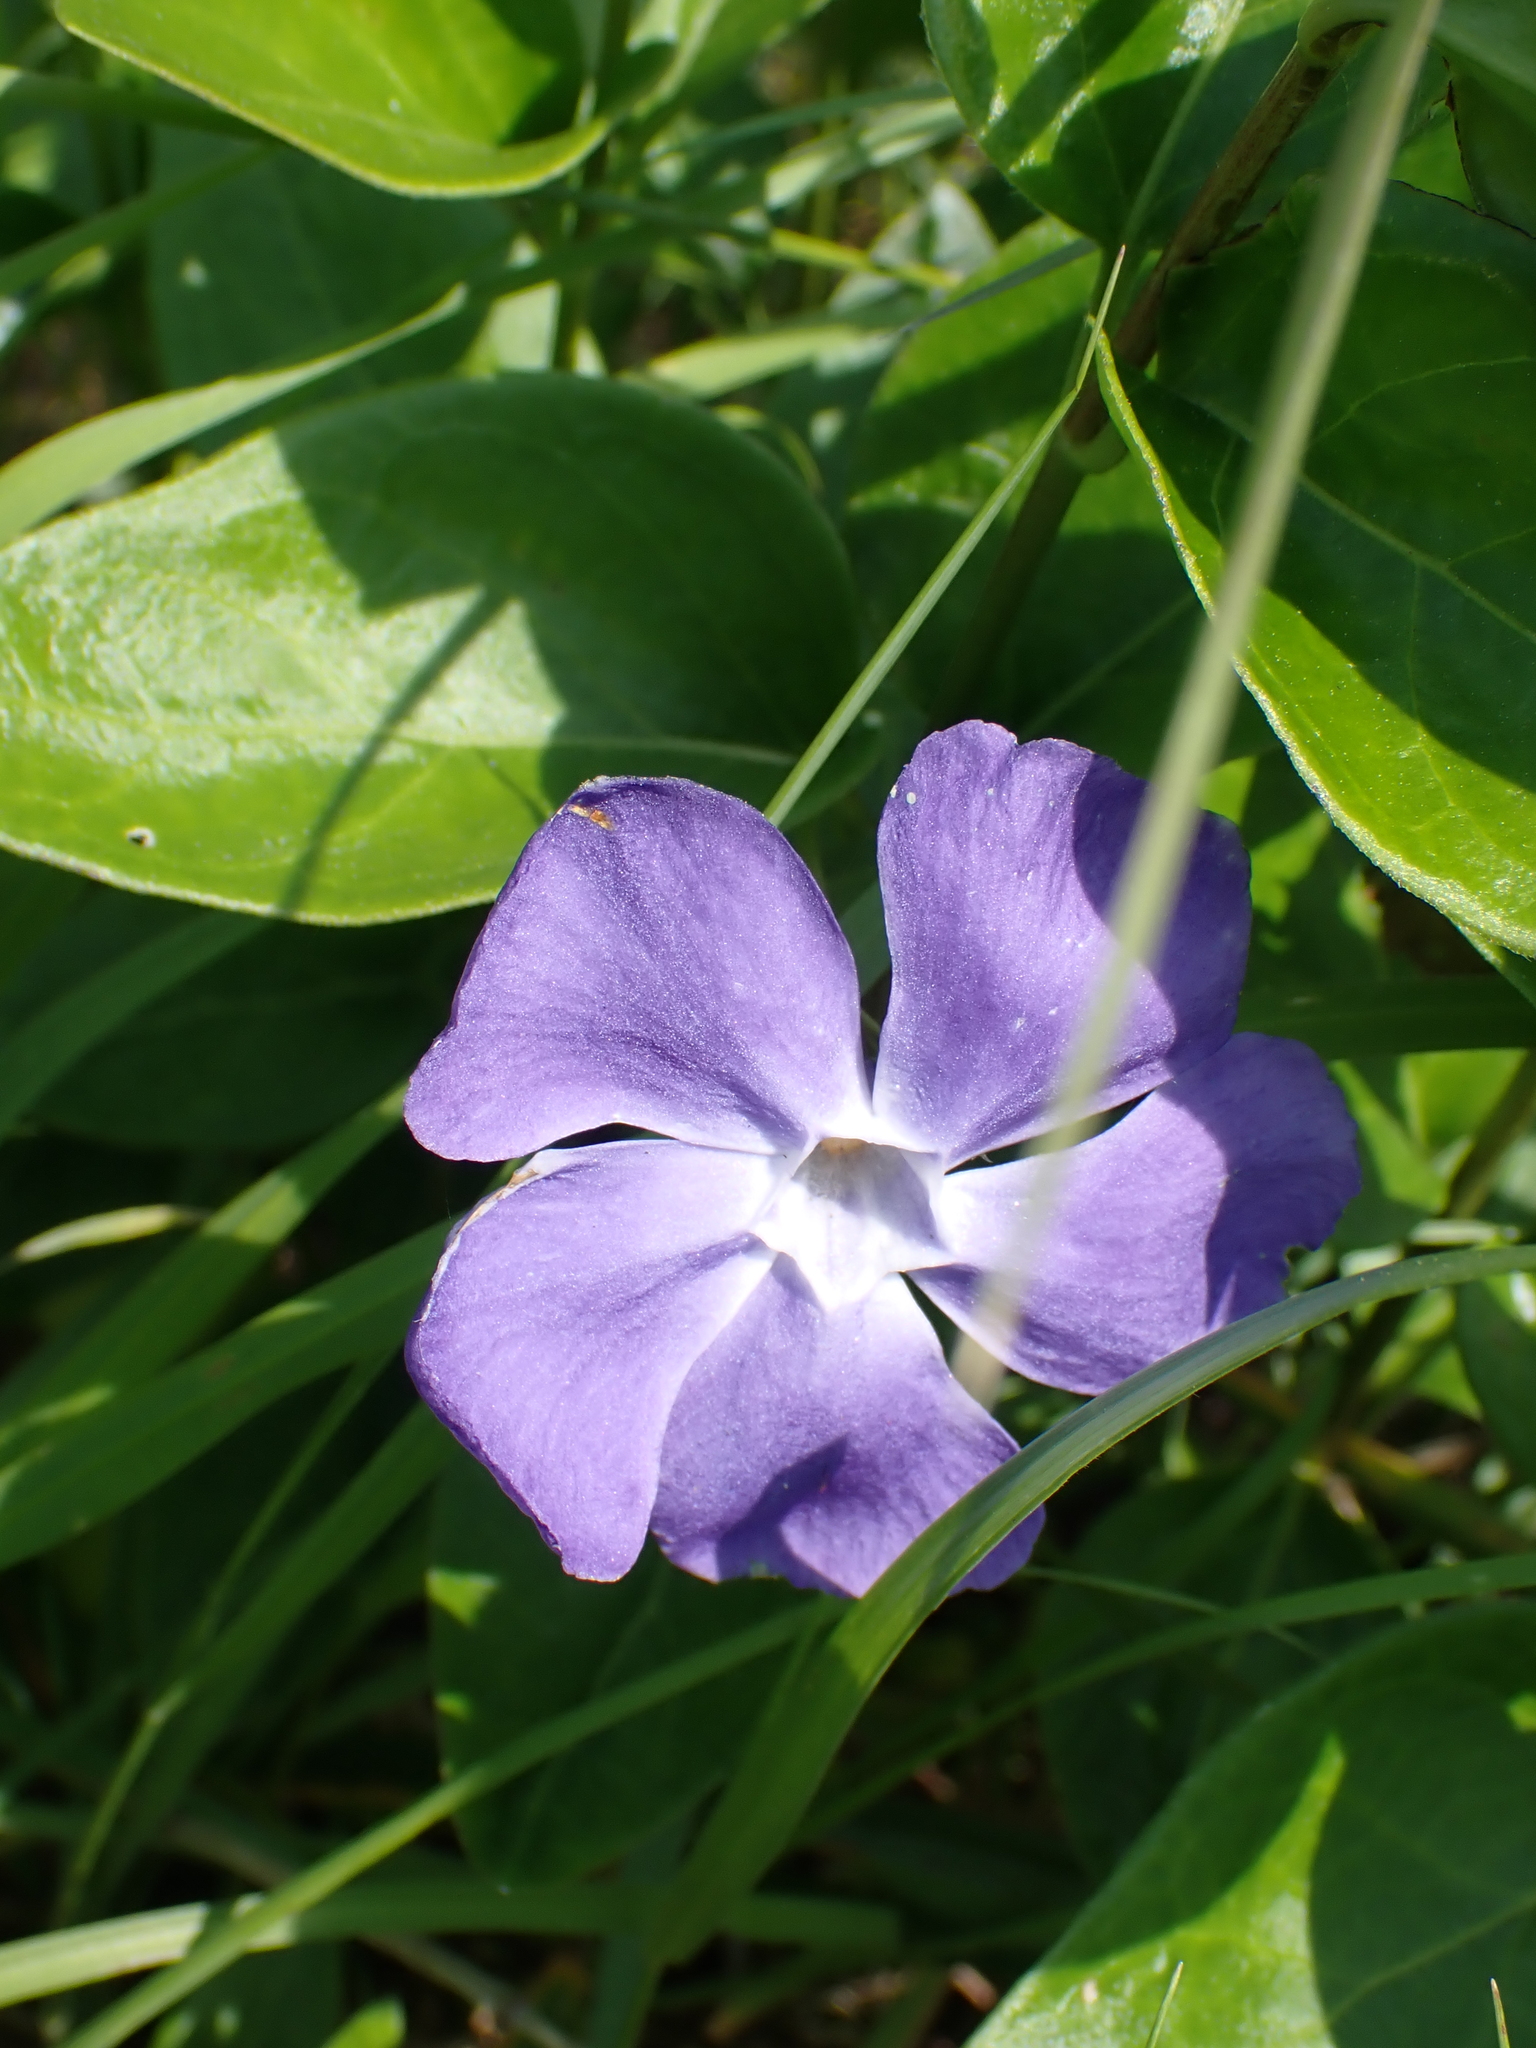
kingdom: Plantae
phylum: Tracheophyta
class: Magnoliopsida
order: Gentianales
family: Apocynaceae
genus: Vinca
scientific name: Vinca major
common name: Greater periwinkle
